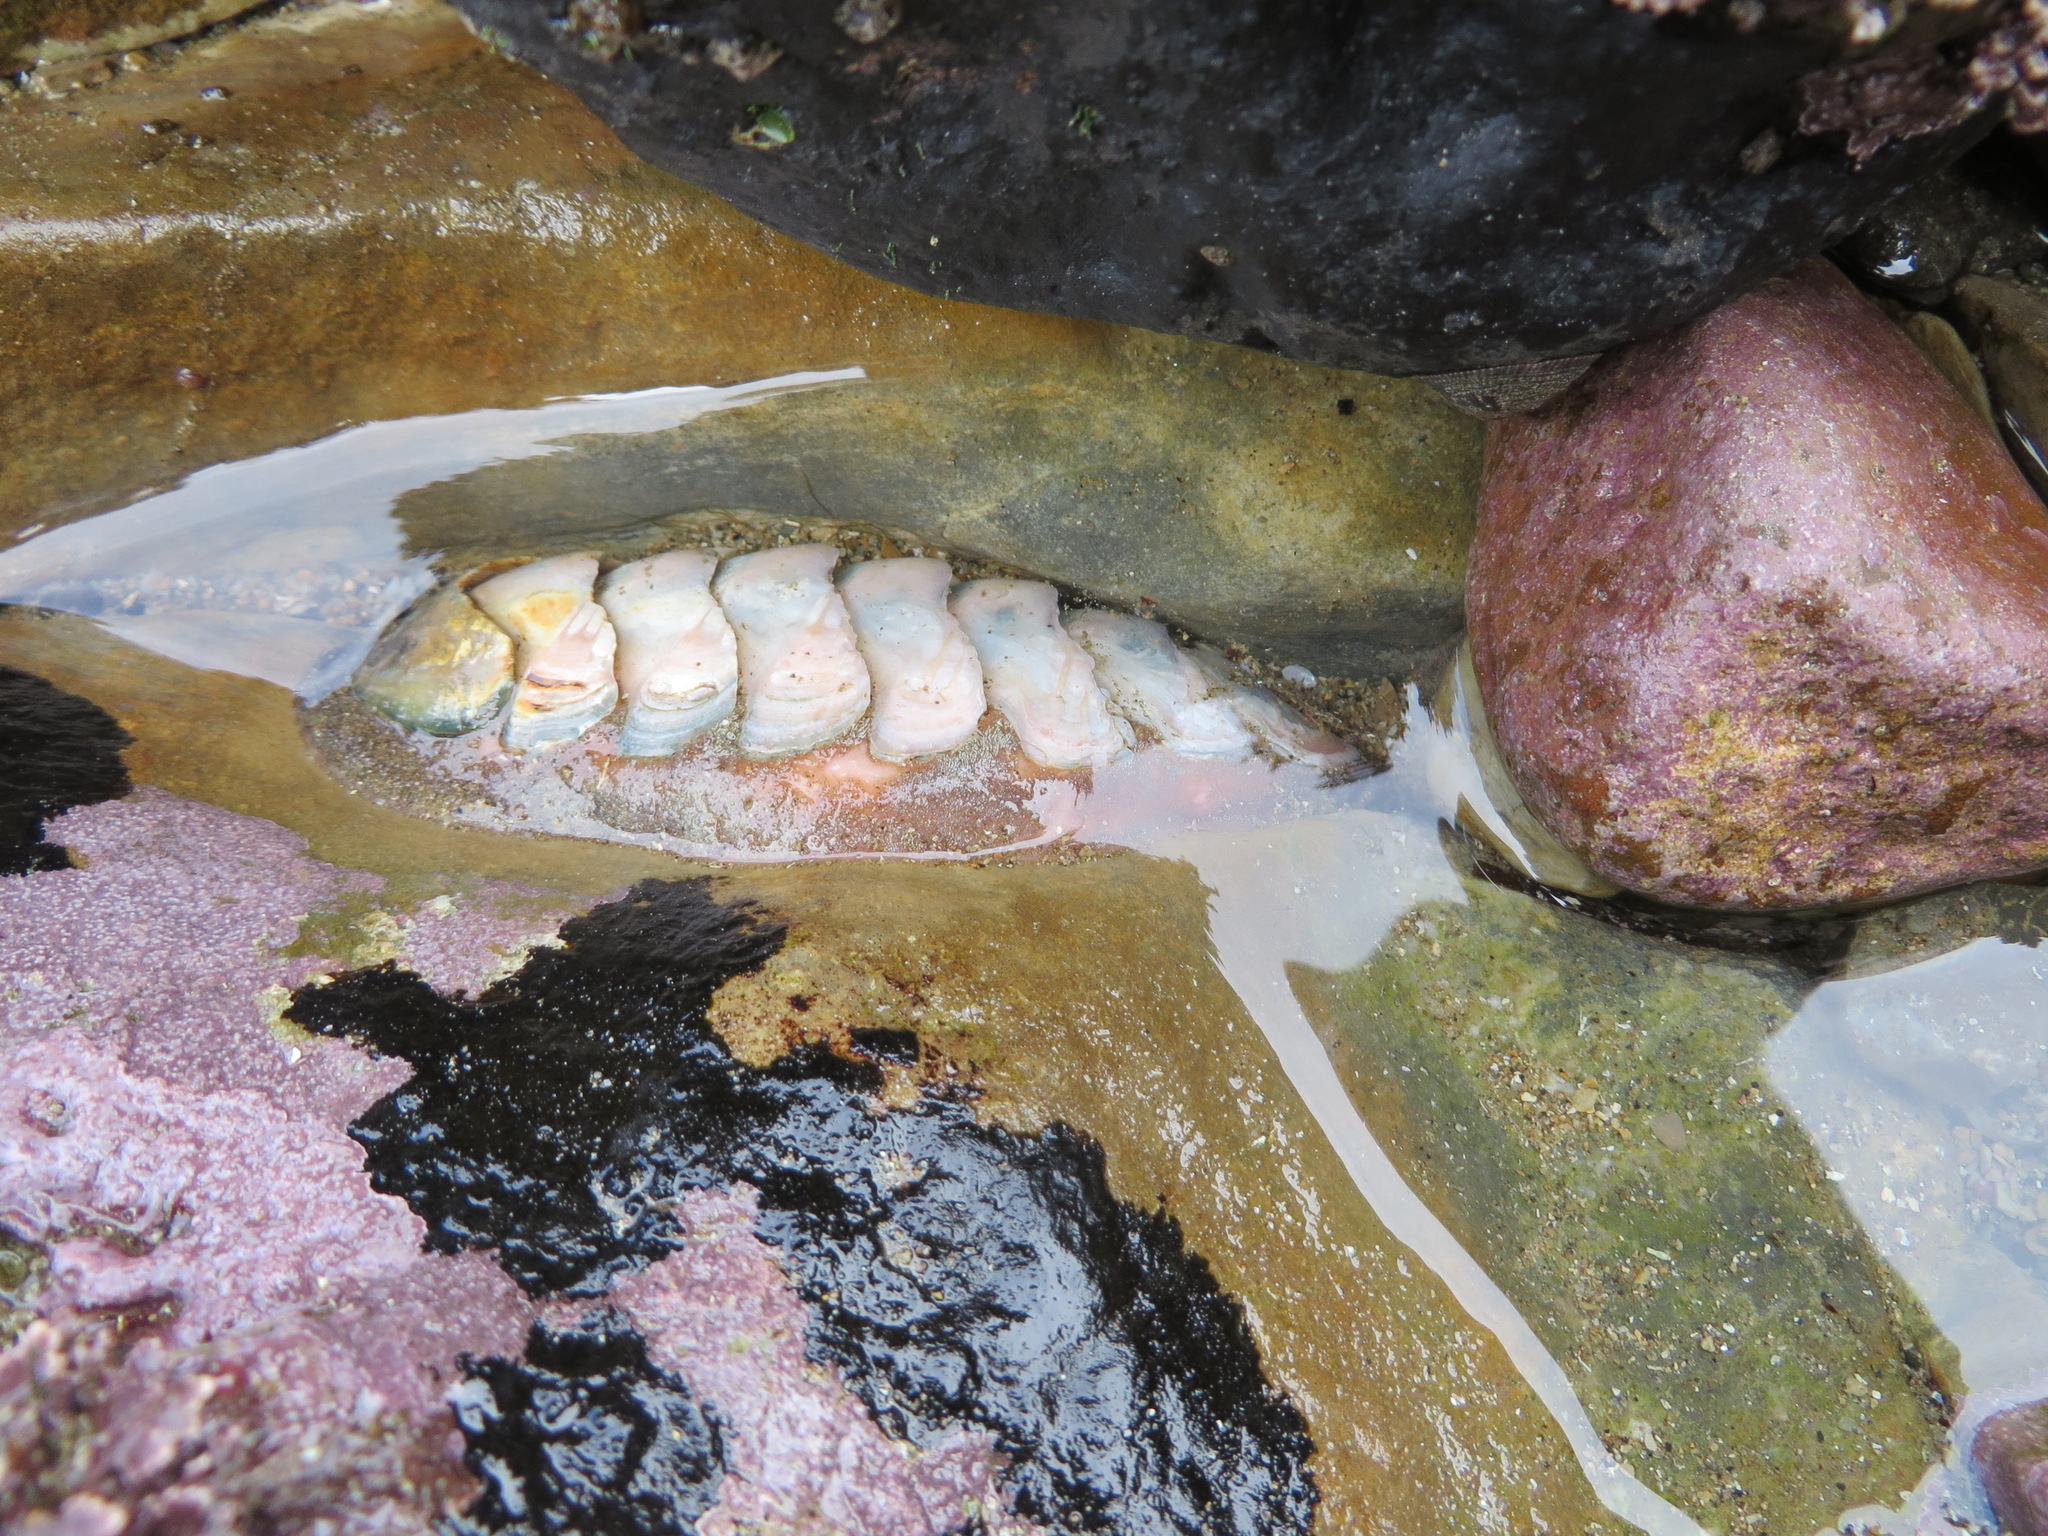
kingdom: Animalia
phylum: Mollusca
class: Polyplacophora
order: Chitonida
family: Ischnochitonidae
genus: Stenoplax
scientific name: Stenoplax conspicua
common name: Conspicuous chiton
